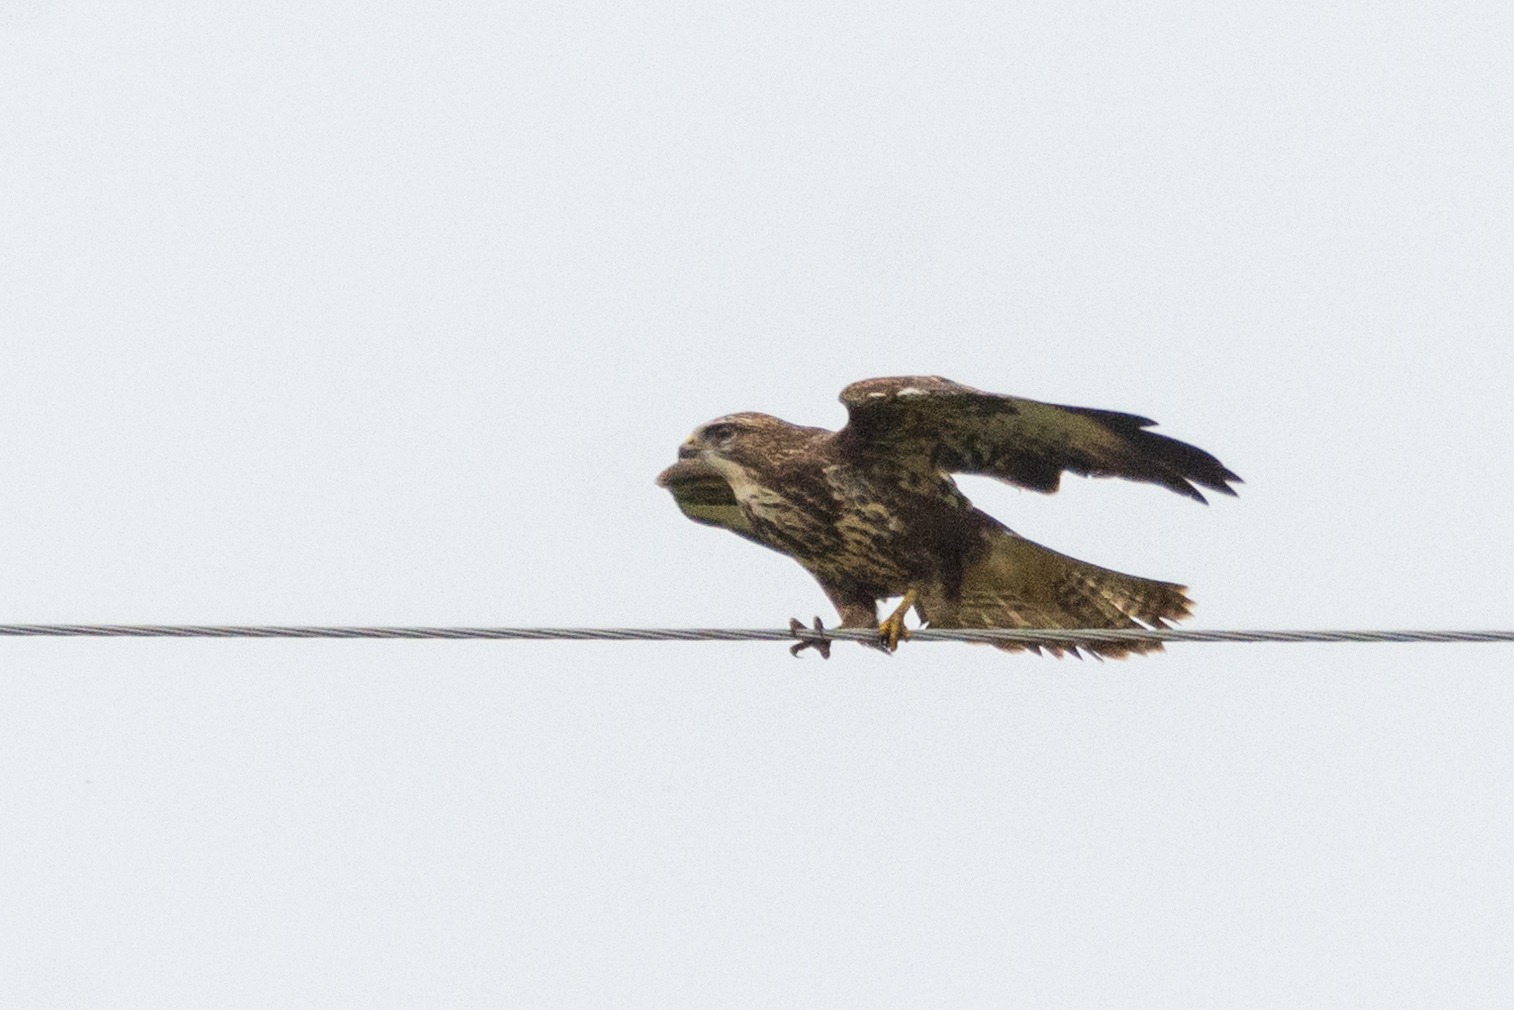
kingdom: Animalia
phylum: Chordata
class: Aves
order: Accipitriformes
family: Accipitridae
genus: Buteo
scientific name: Buteo buteo
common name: Common buzzard
